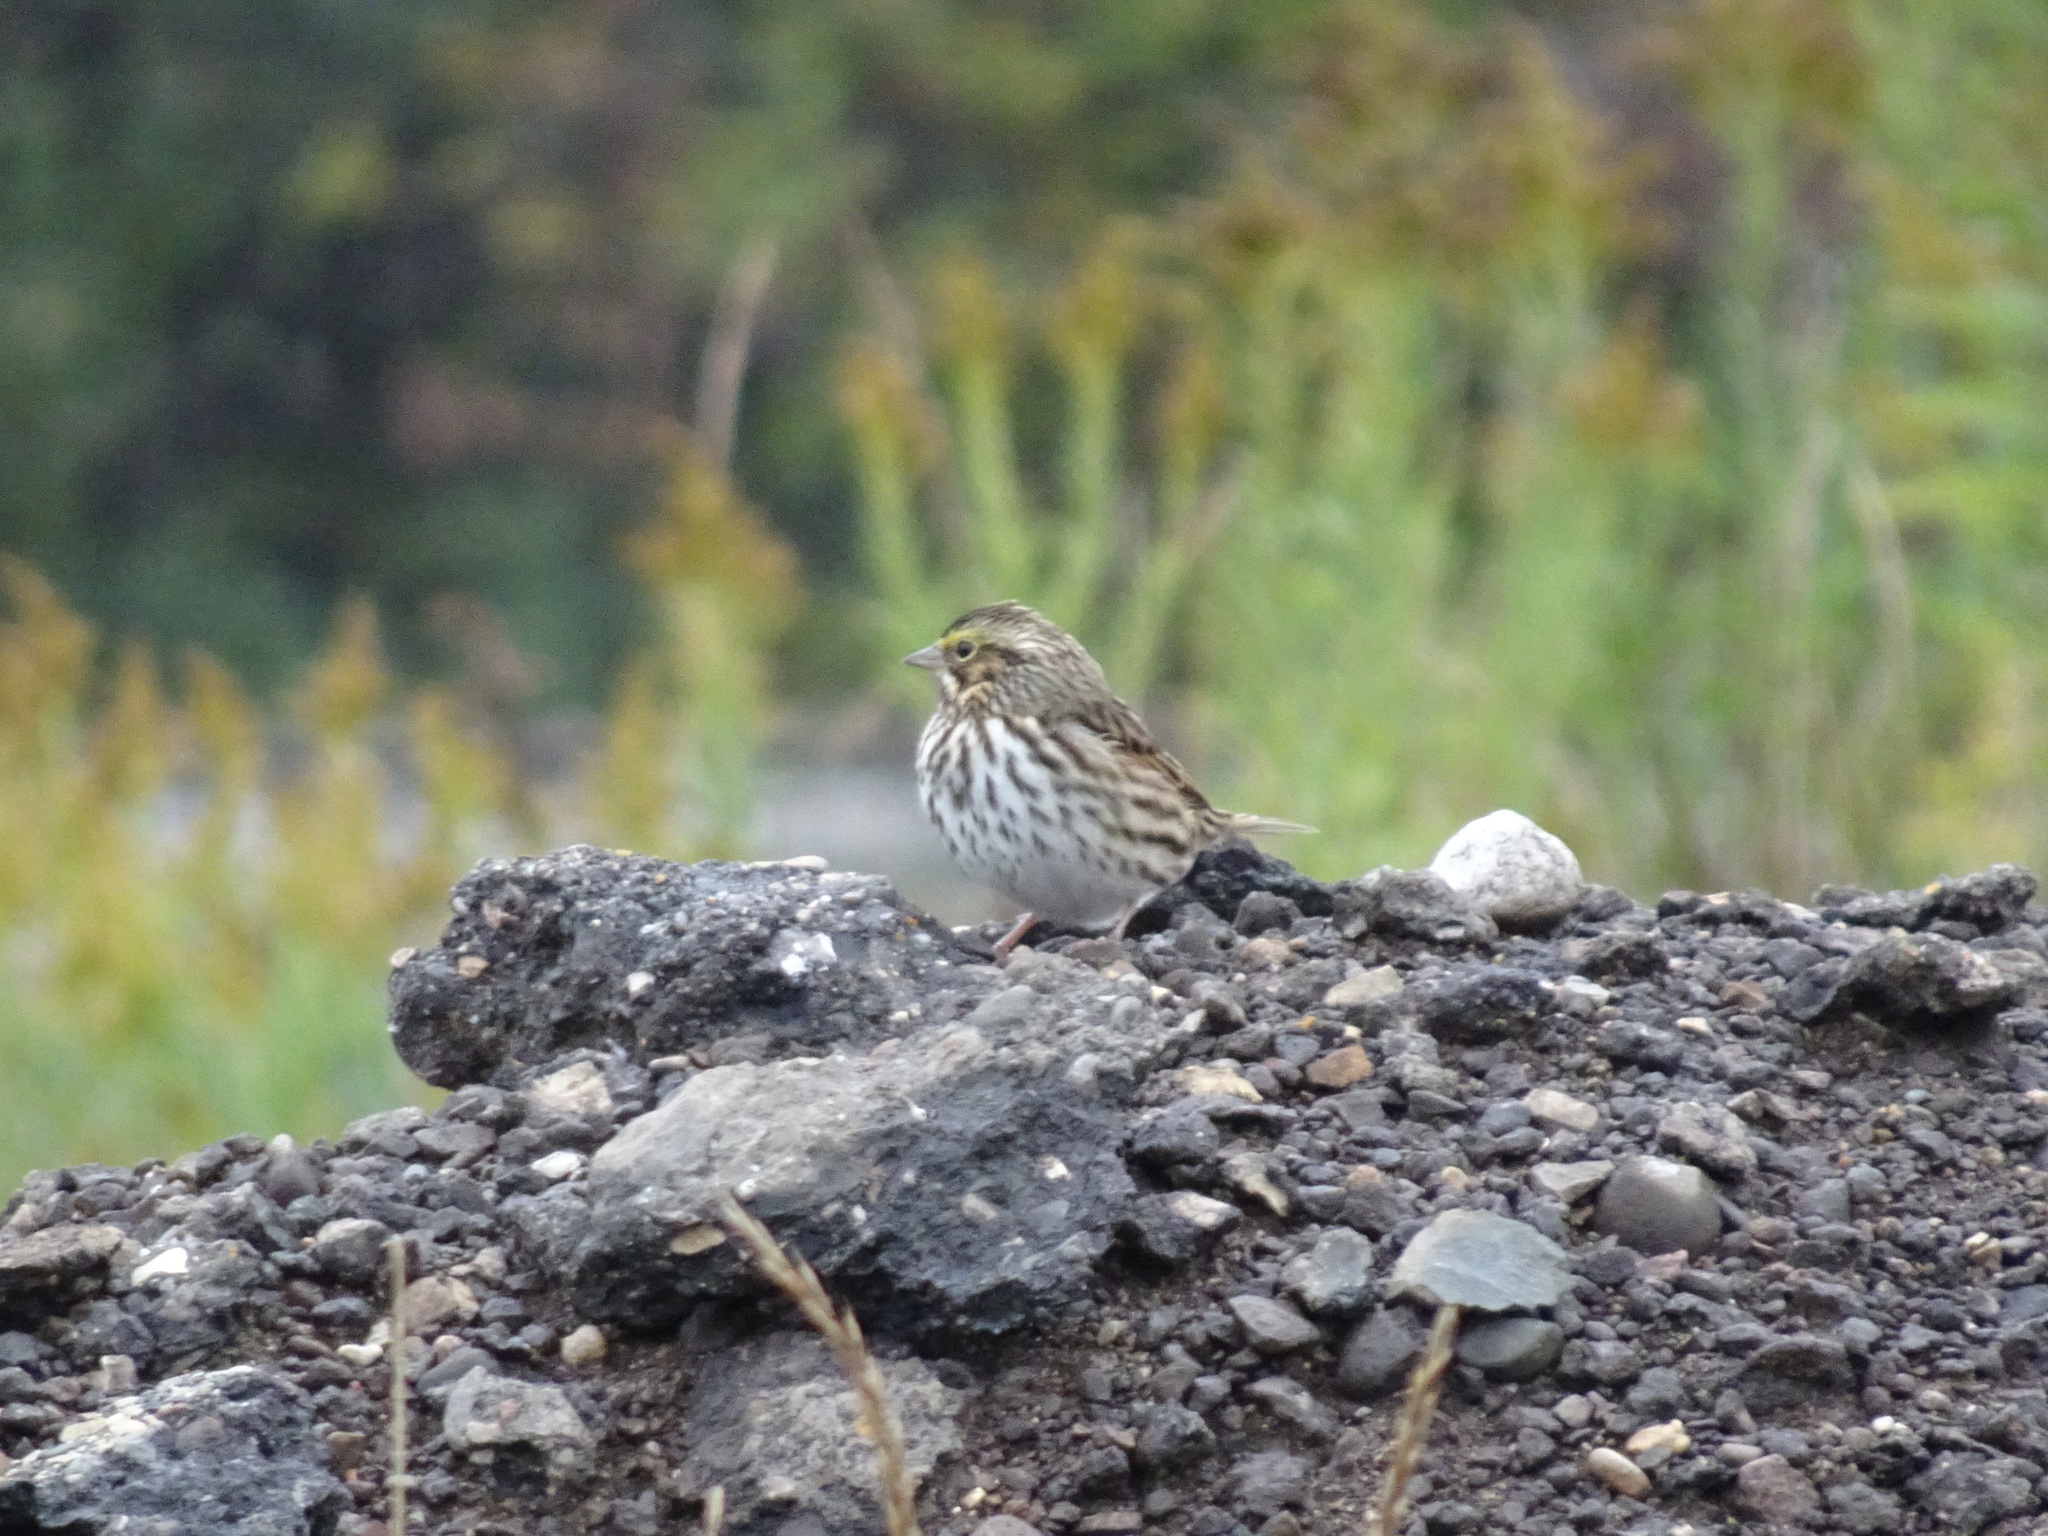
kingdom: Animalia
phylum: Chordata
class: Aves
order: Passeriformes
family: Passerellidae
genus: Passerculus
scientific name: Passerculus sandwichensis
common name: Savannah sparrow
